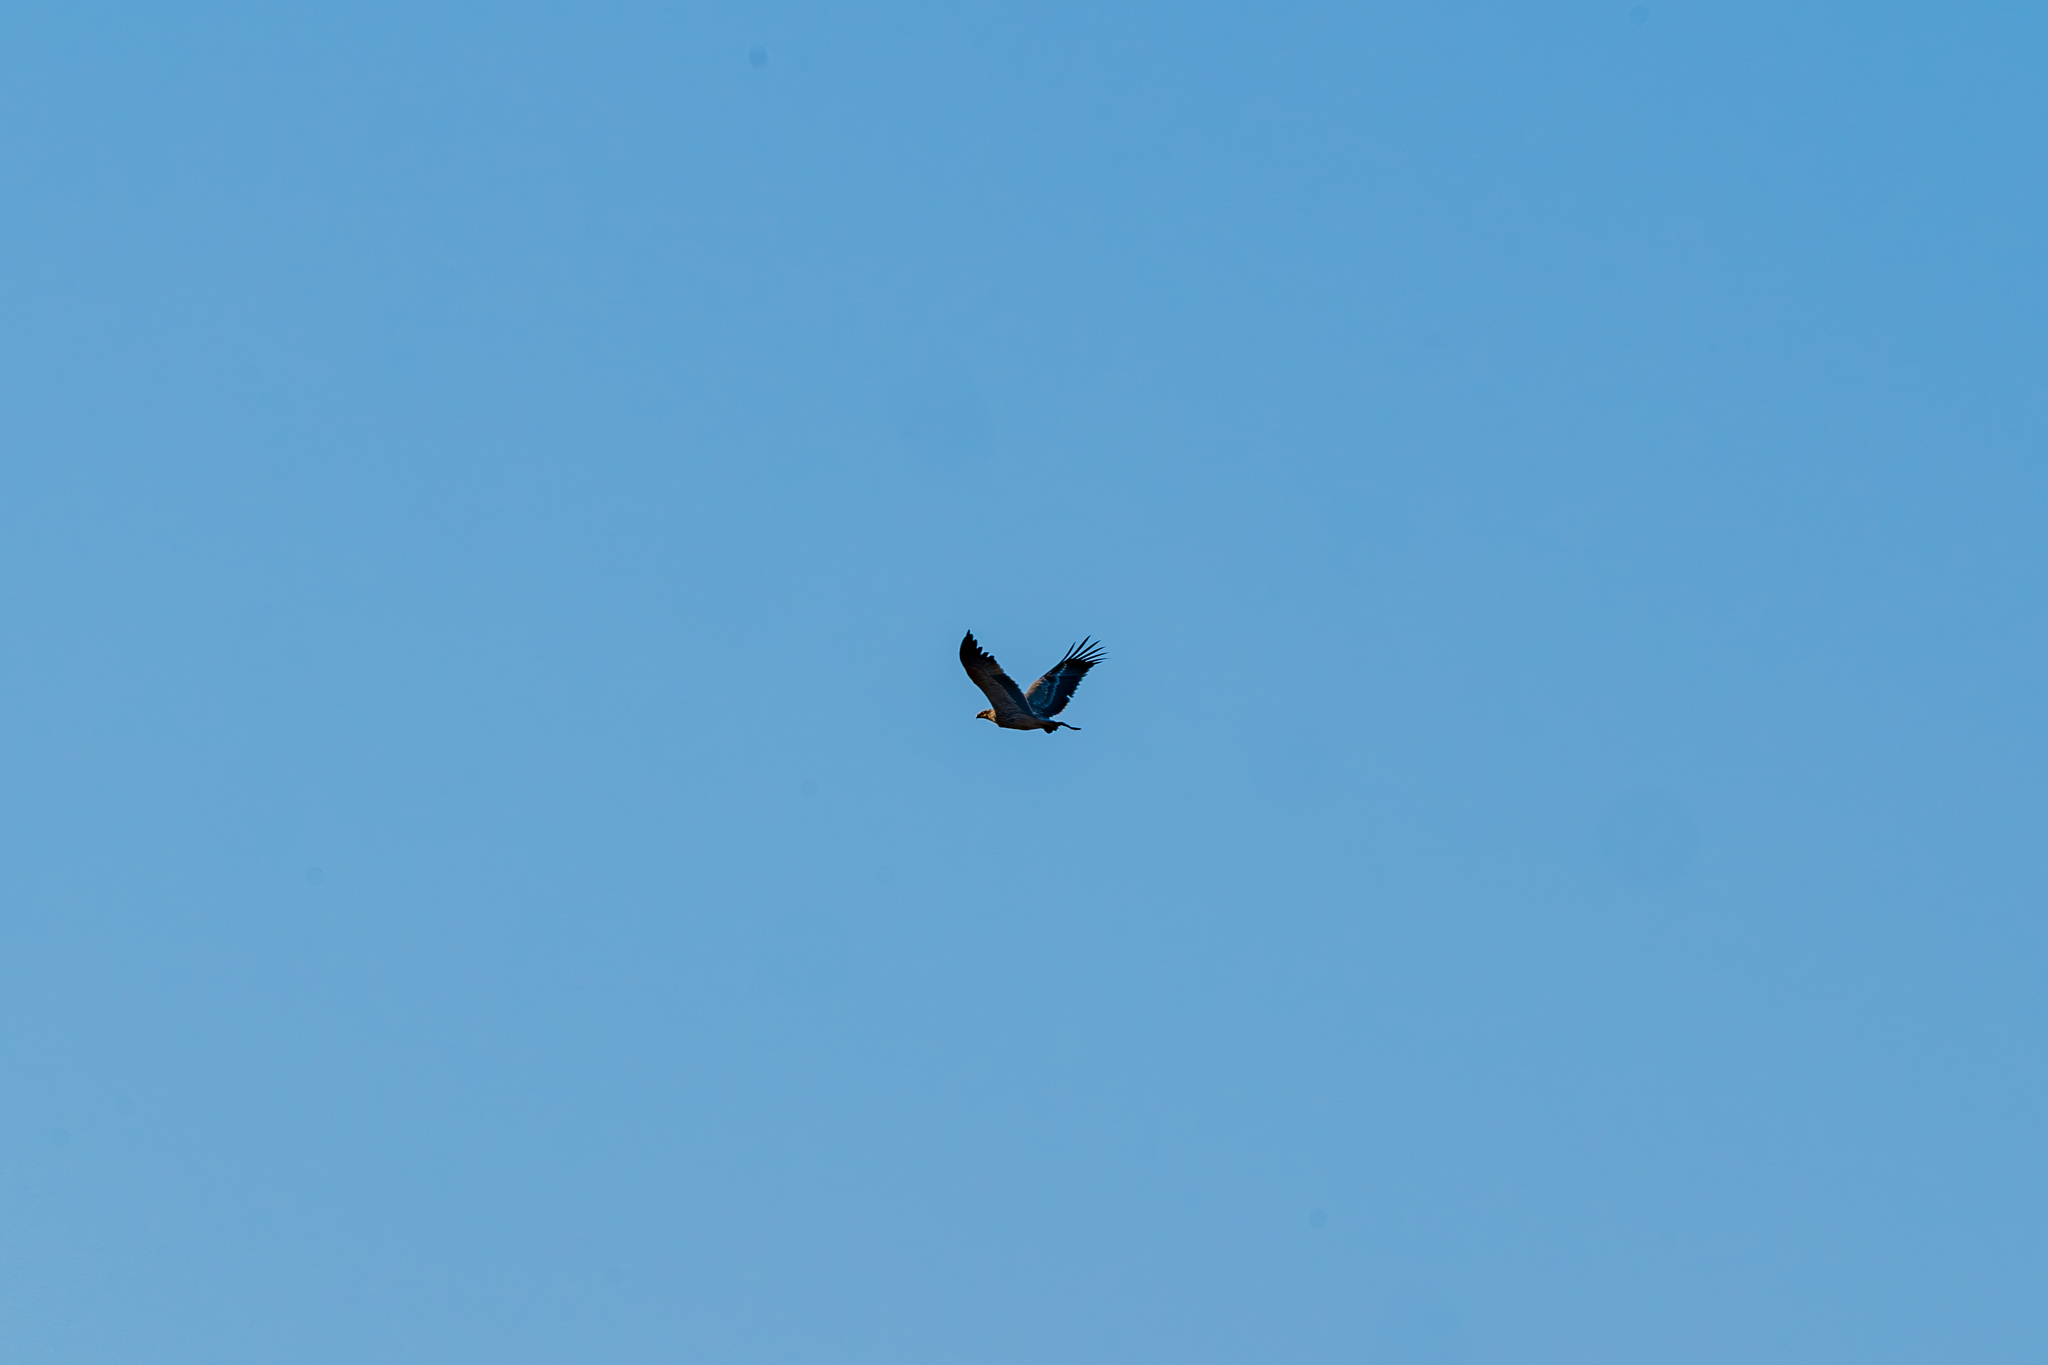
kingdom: Animalia
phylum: Chordata
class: Aves
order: Accipitriformes
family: Accipitridae
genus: Aquila
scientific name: Aquila heliaca
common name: Eastern imperial eagle
